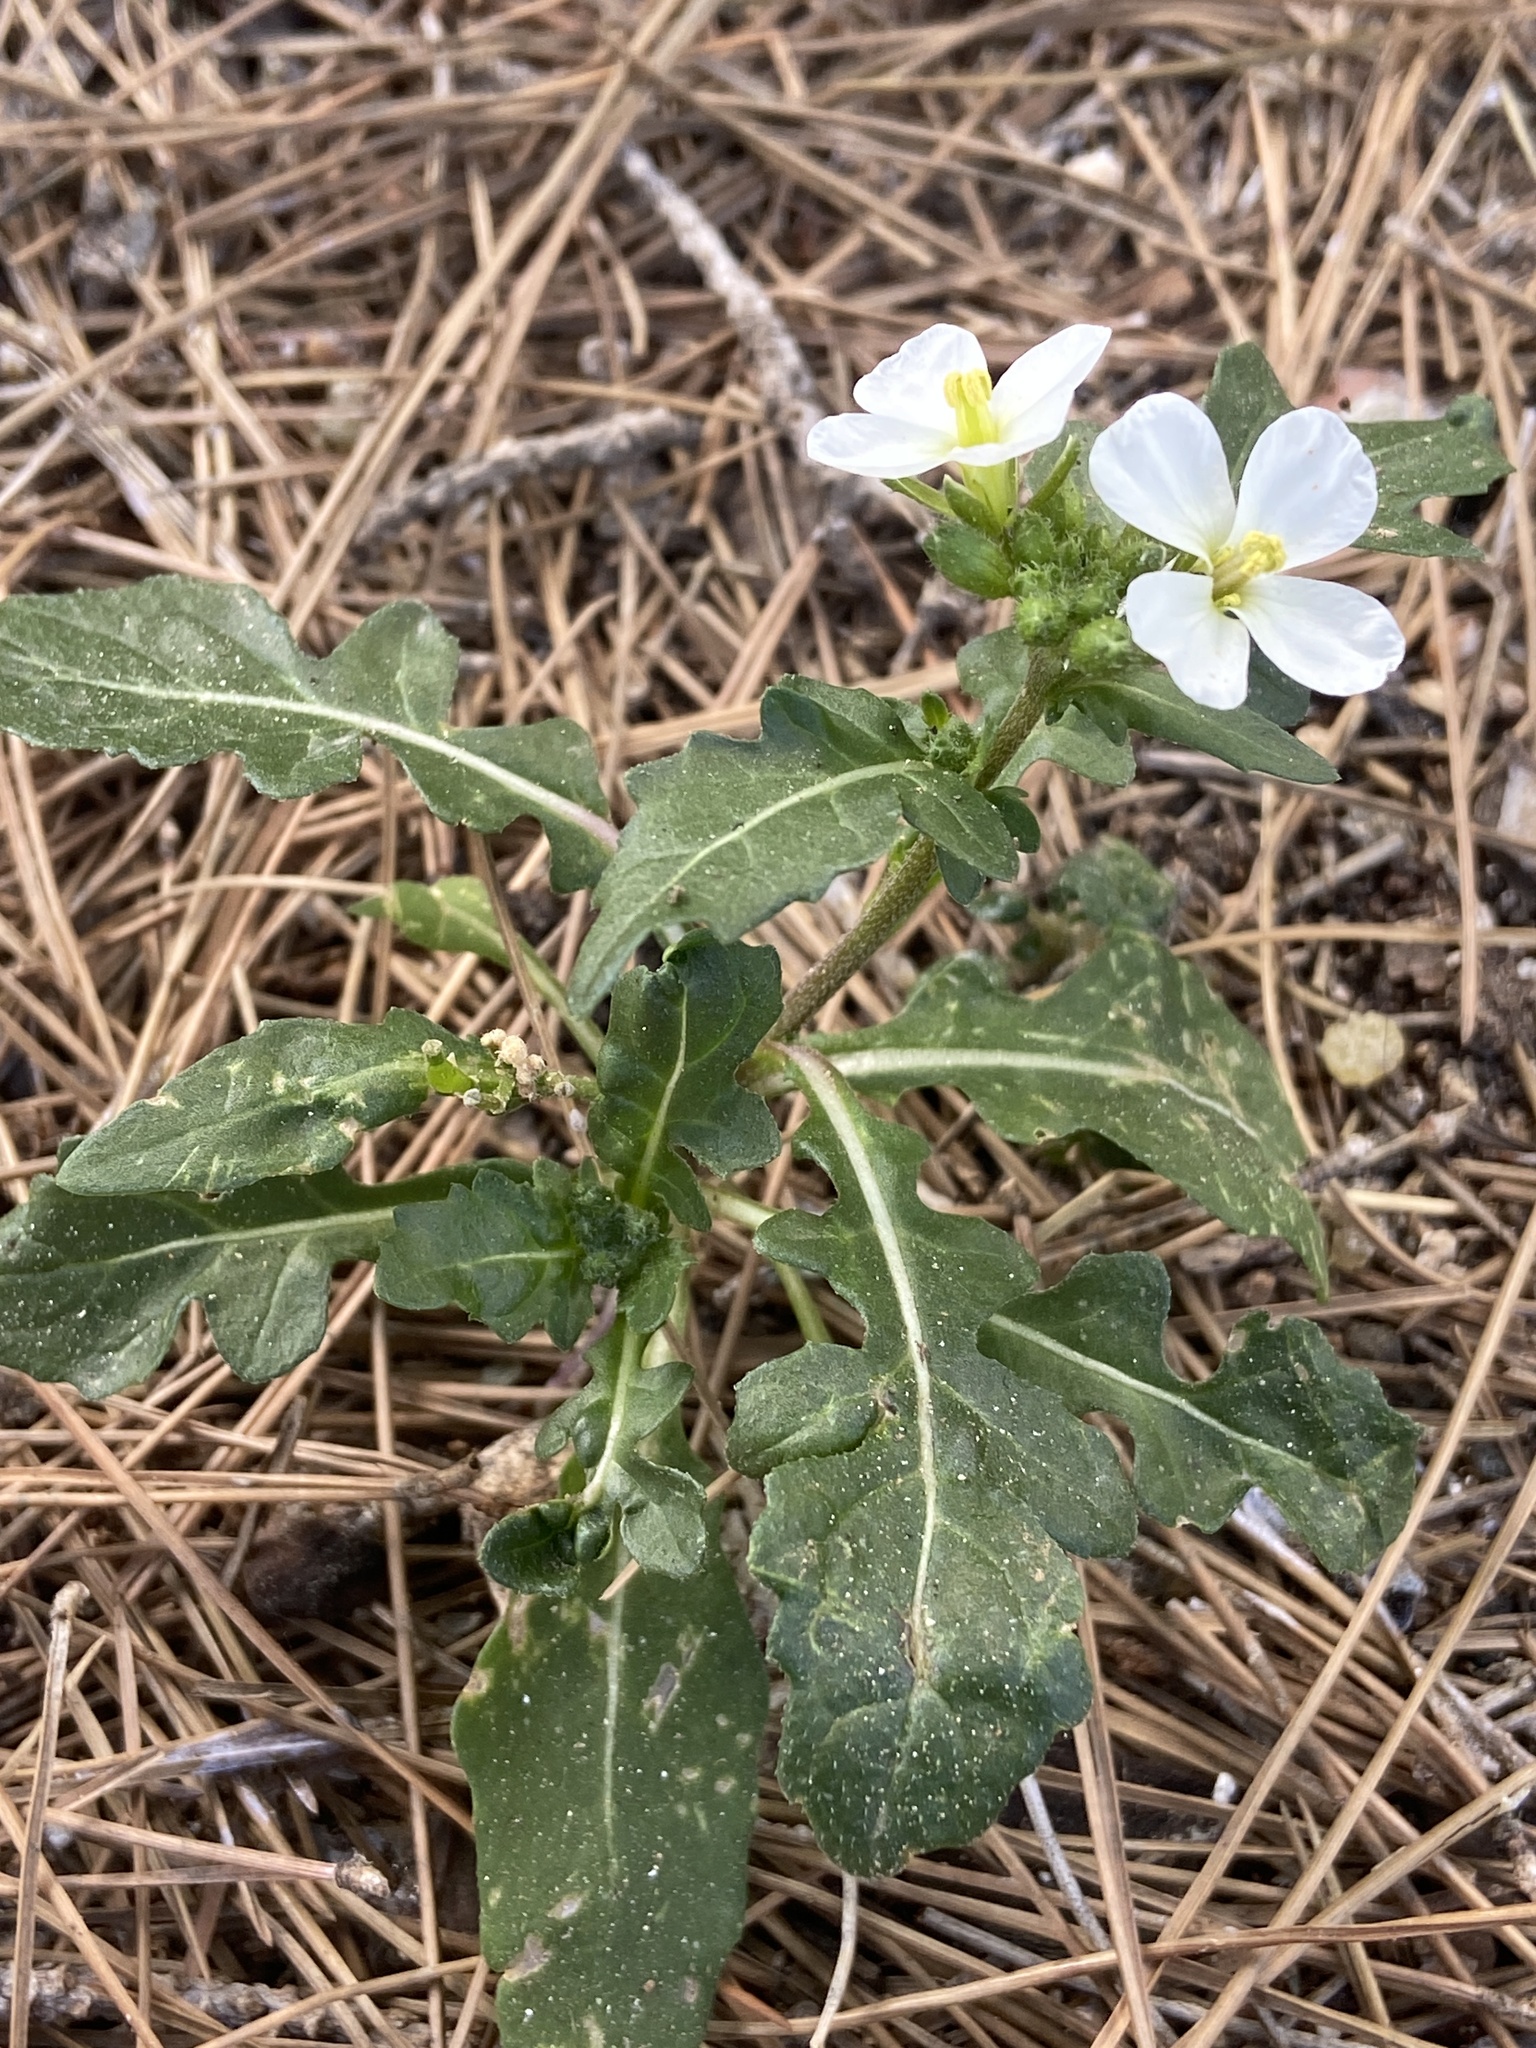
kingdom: Plantae
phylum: Tracheophyta
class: Magnoliopsida
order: Brassicales
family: Brassicaceae
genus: Diplotaxis
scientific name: Diplotaxis erucoides
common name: White rocket
